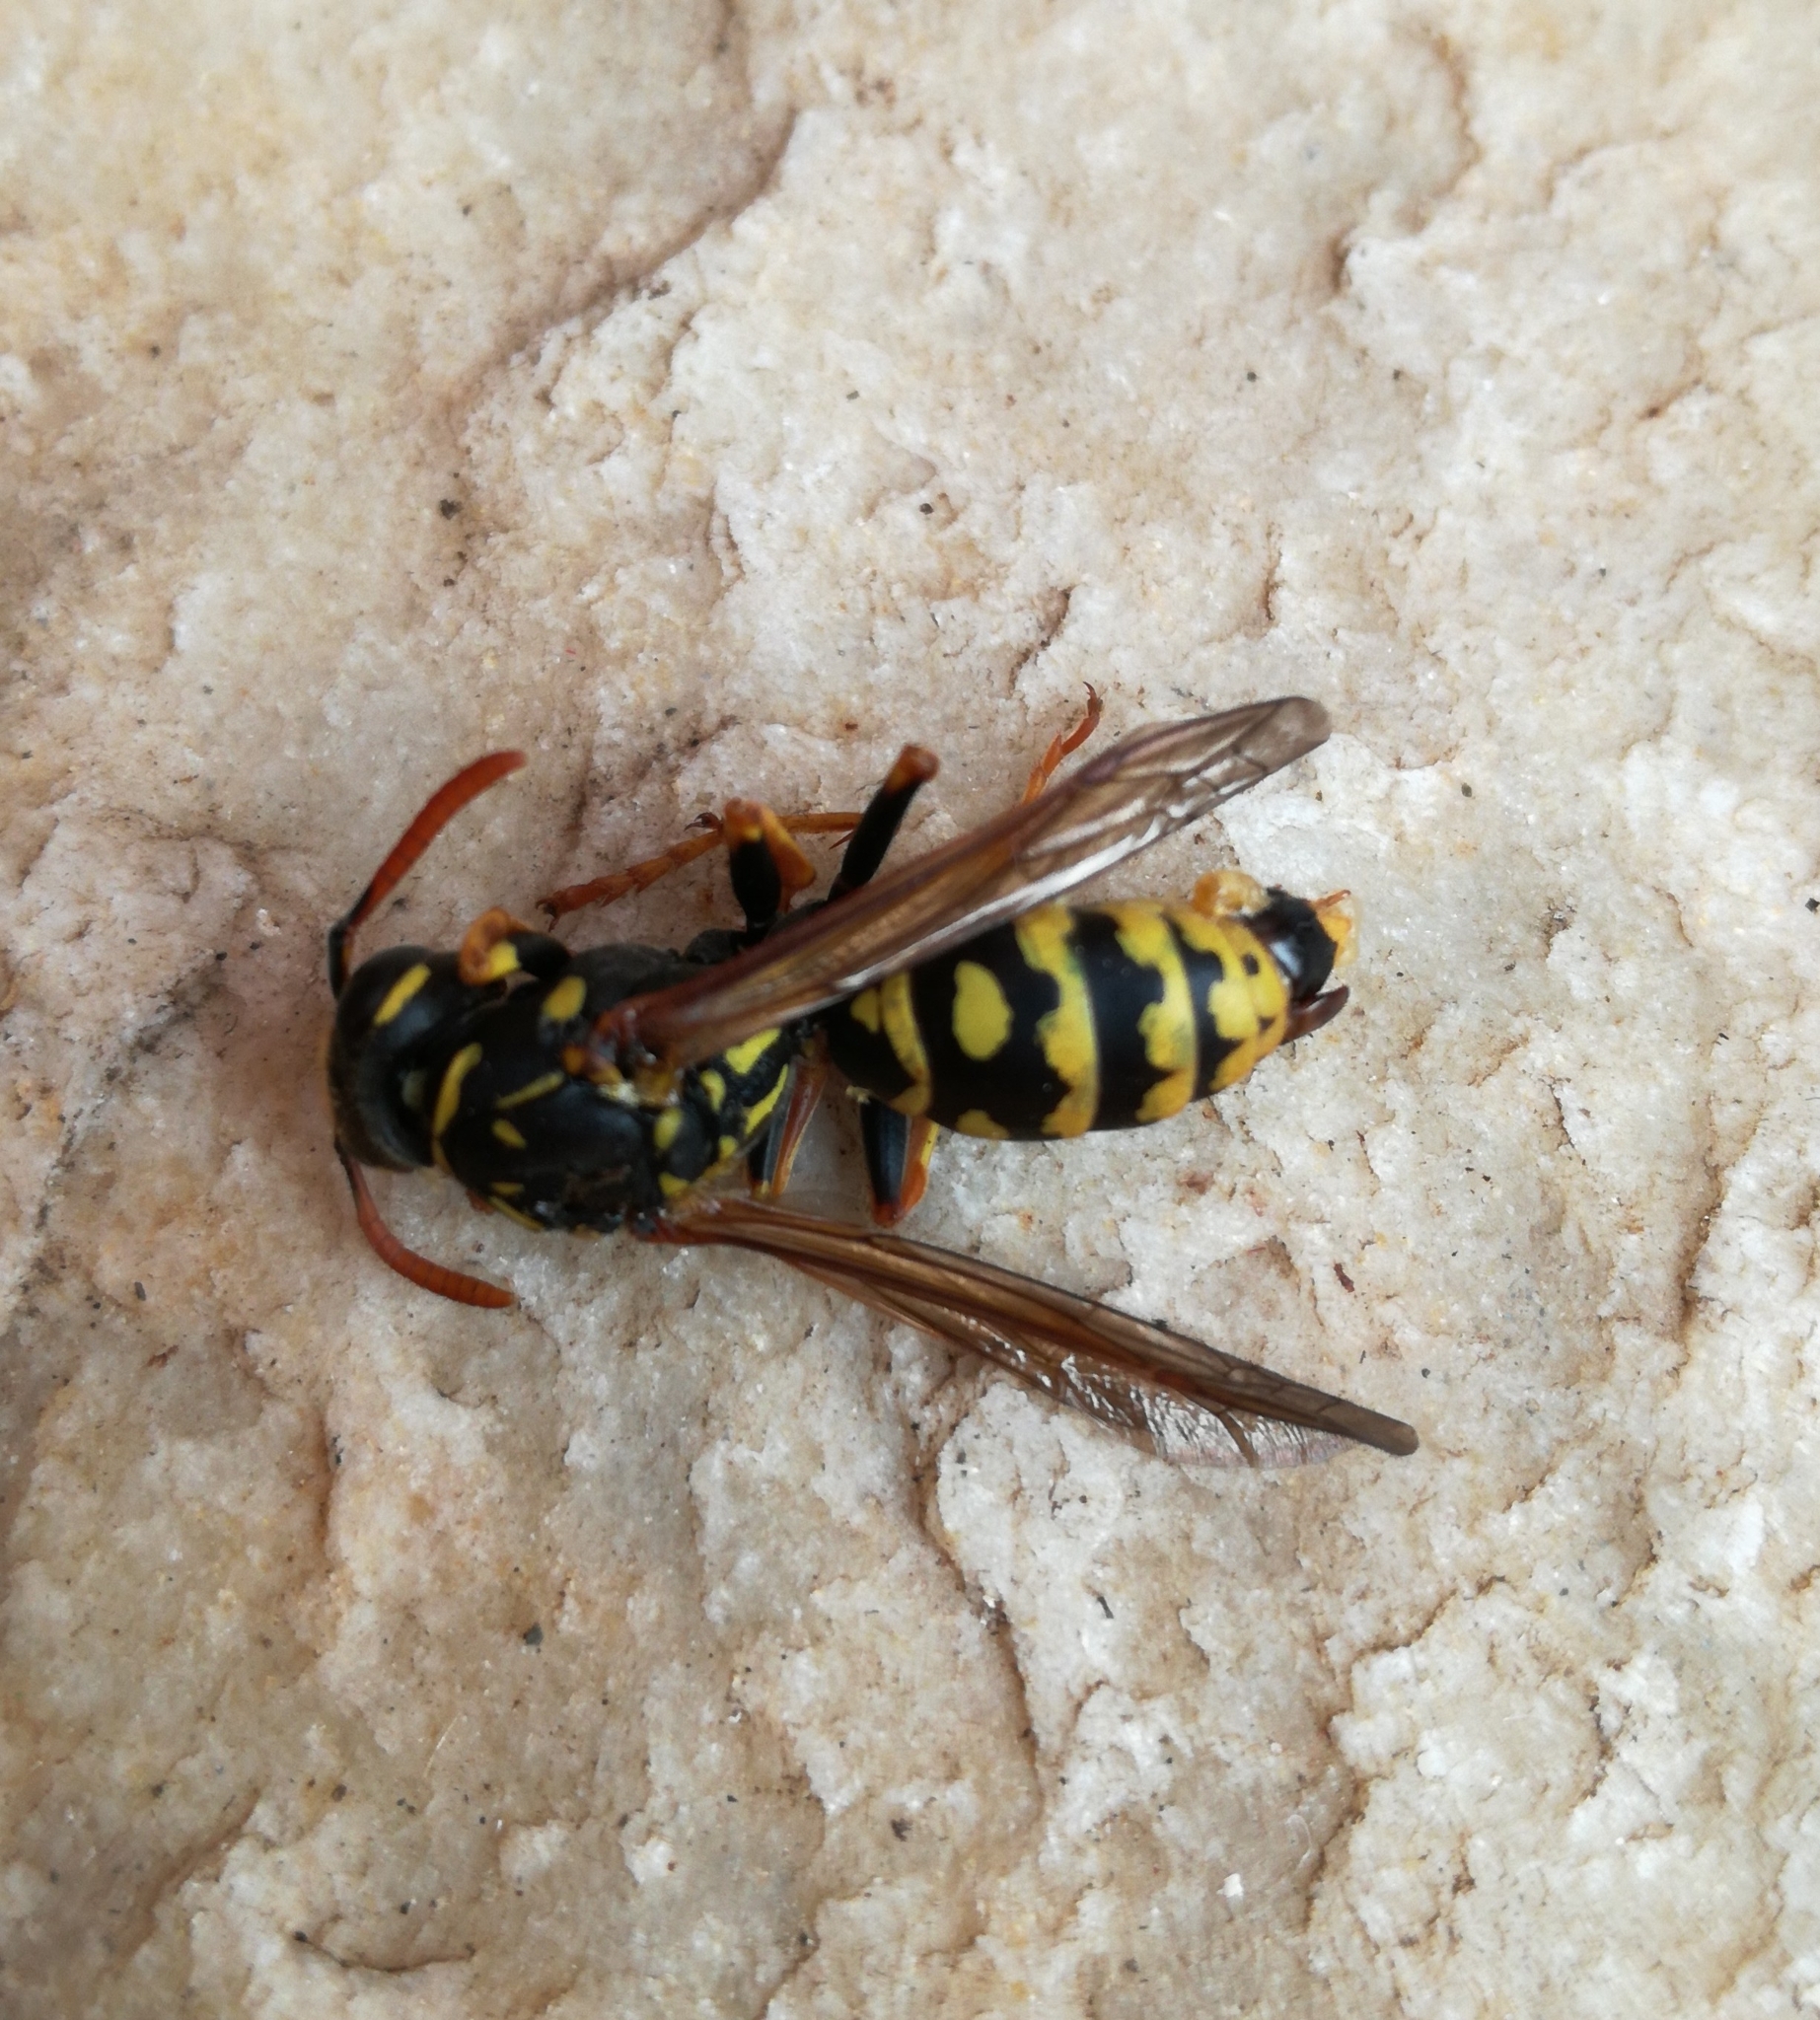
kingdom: Animalia
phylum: Arthropoda
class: Insecta
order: Hymenoptera
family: Eumenidae
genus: Polistes
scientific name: Polistes dominula
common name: Paper wasp
